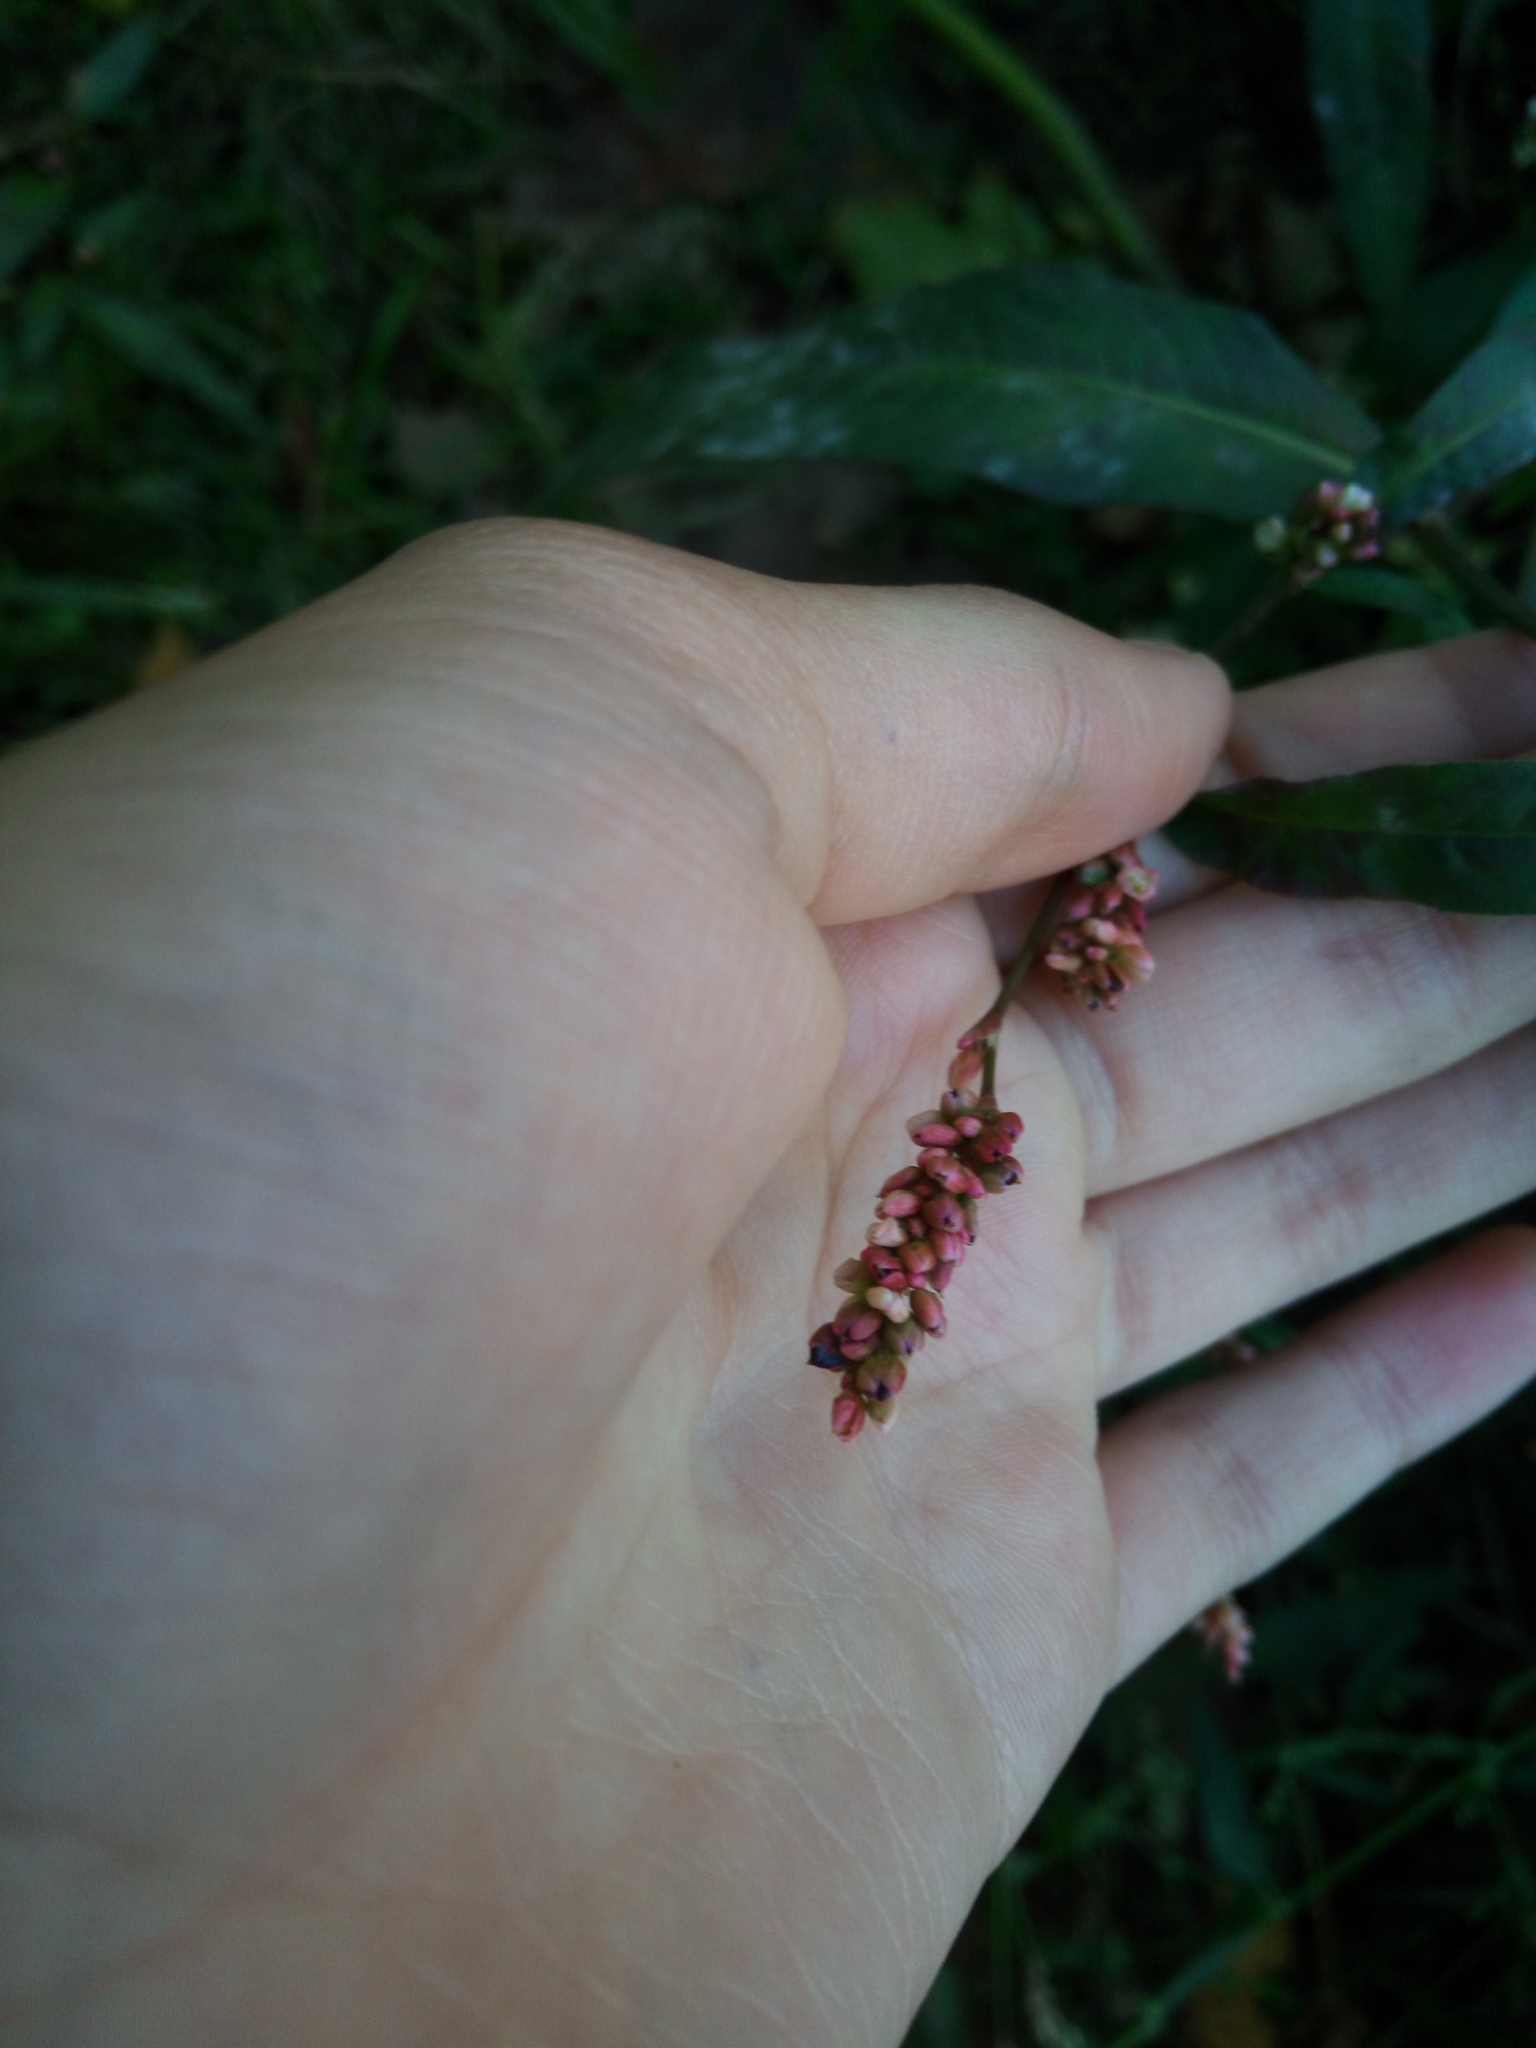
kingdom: Plantae
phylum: Tracheophyta
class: Magnoliopsida
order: Caryophyllales
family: Polygonaceae
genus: Persicaria
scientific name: Persicaria maculosa
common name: Redshank
